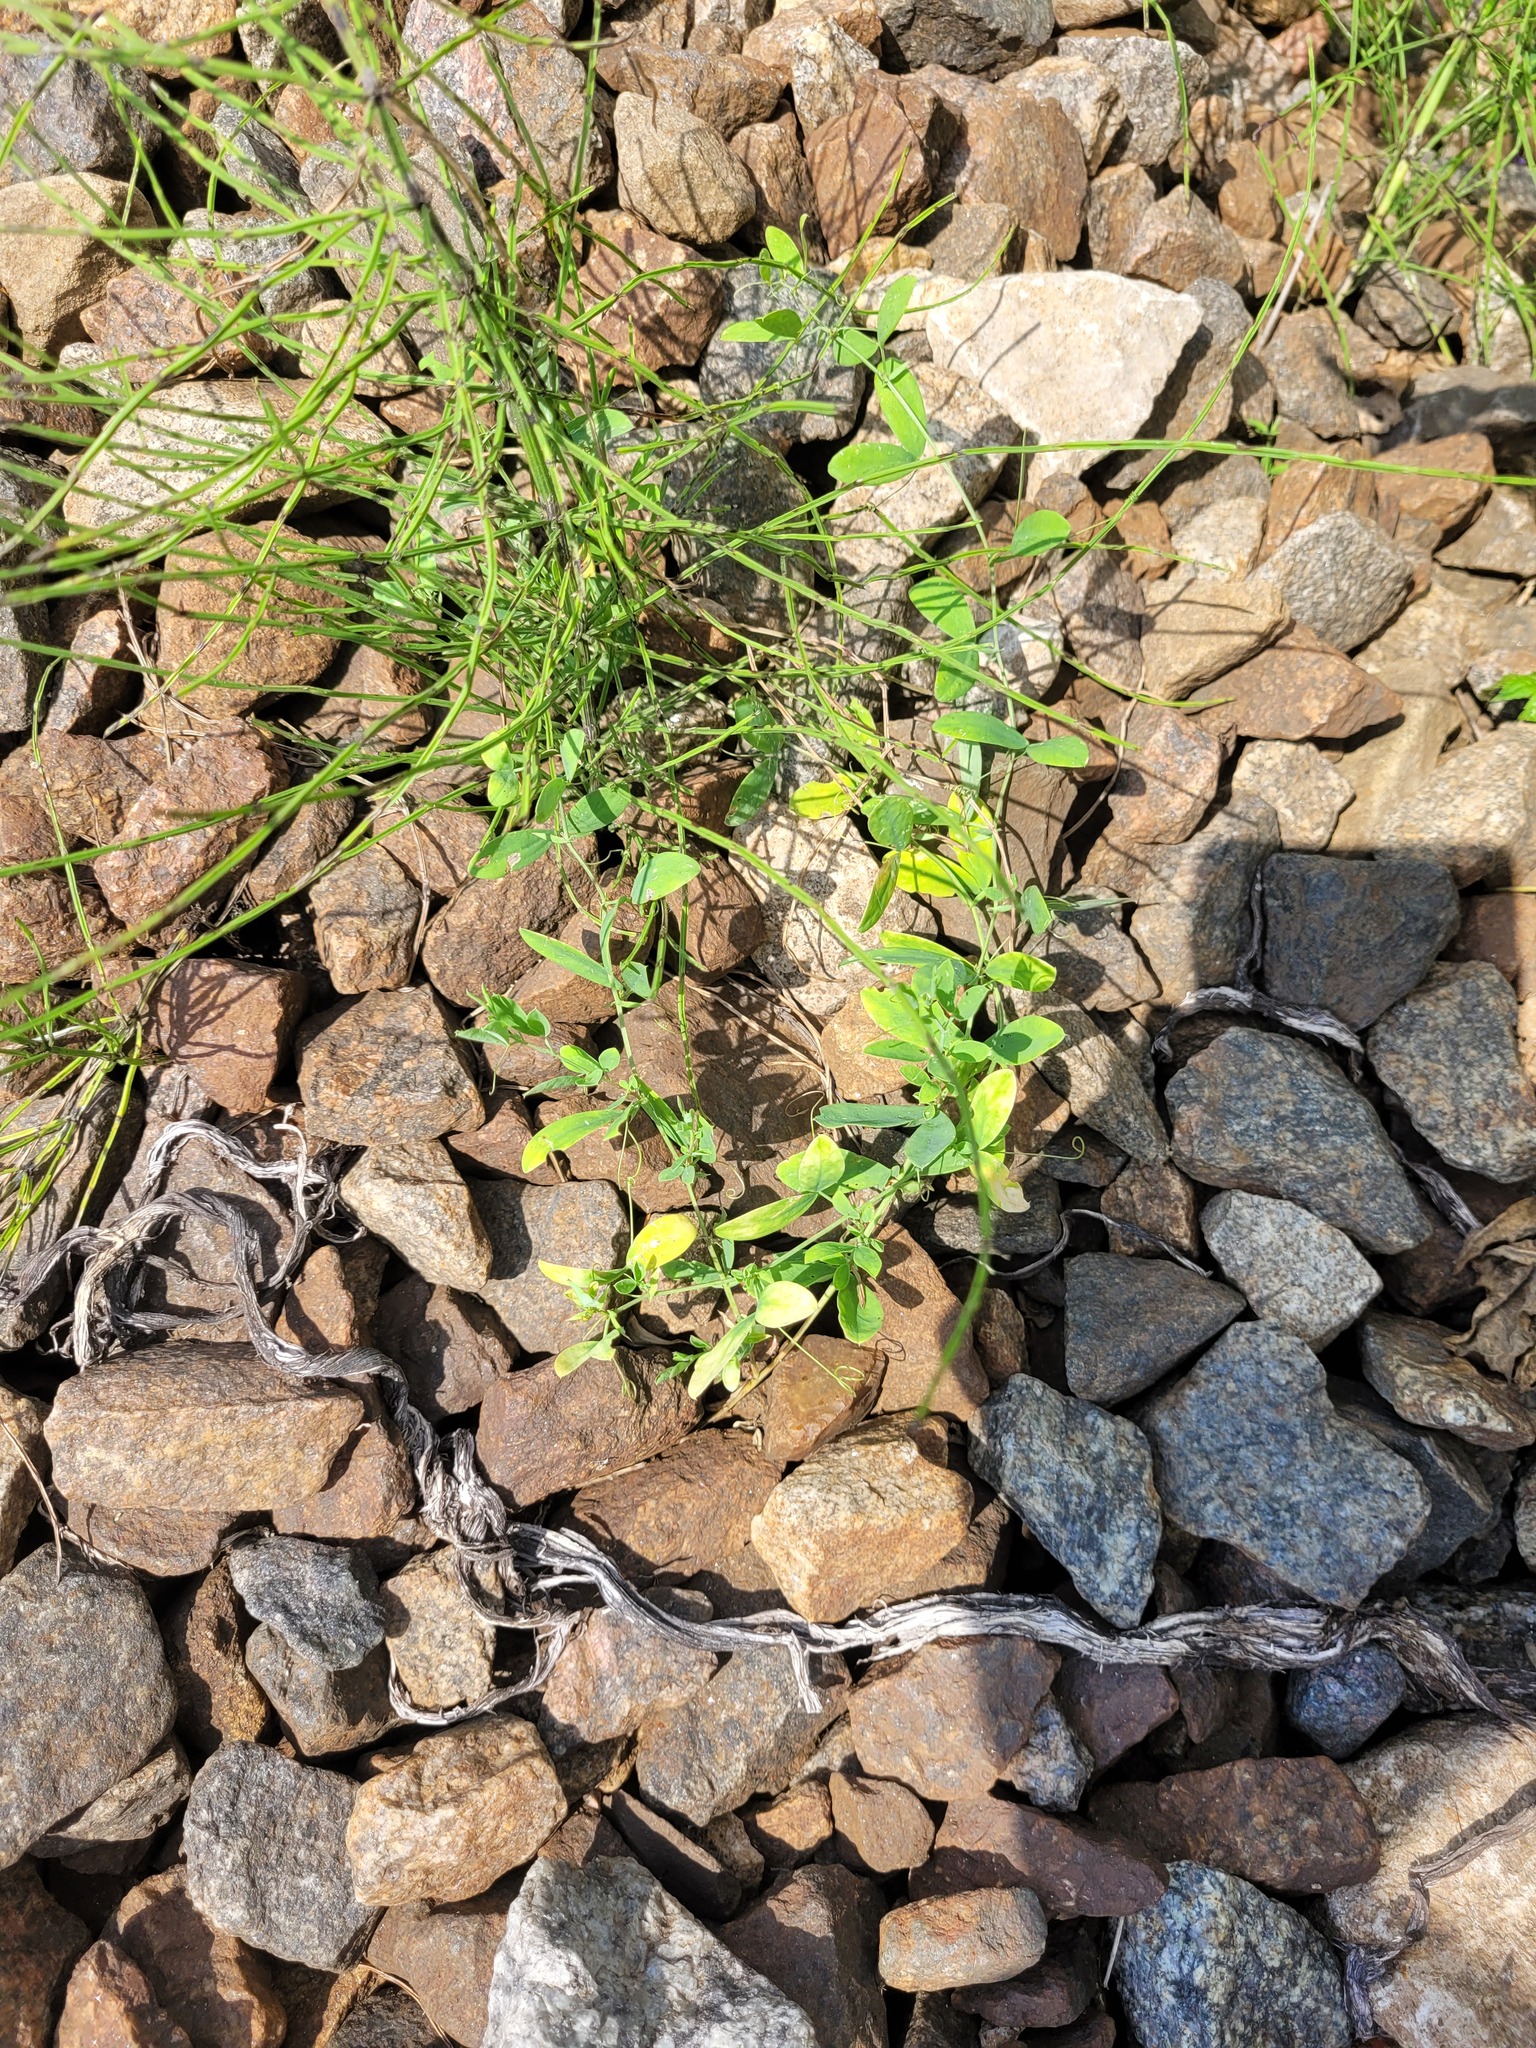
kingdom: Plantae
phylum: Tracheophyta
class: Magnoliopsida
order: Fabales
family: Fabaceae
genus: Lathyrus
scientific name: Lathyrus tuberosus
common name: Tuberous pea
